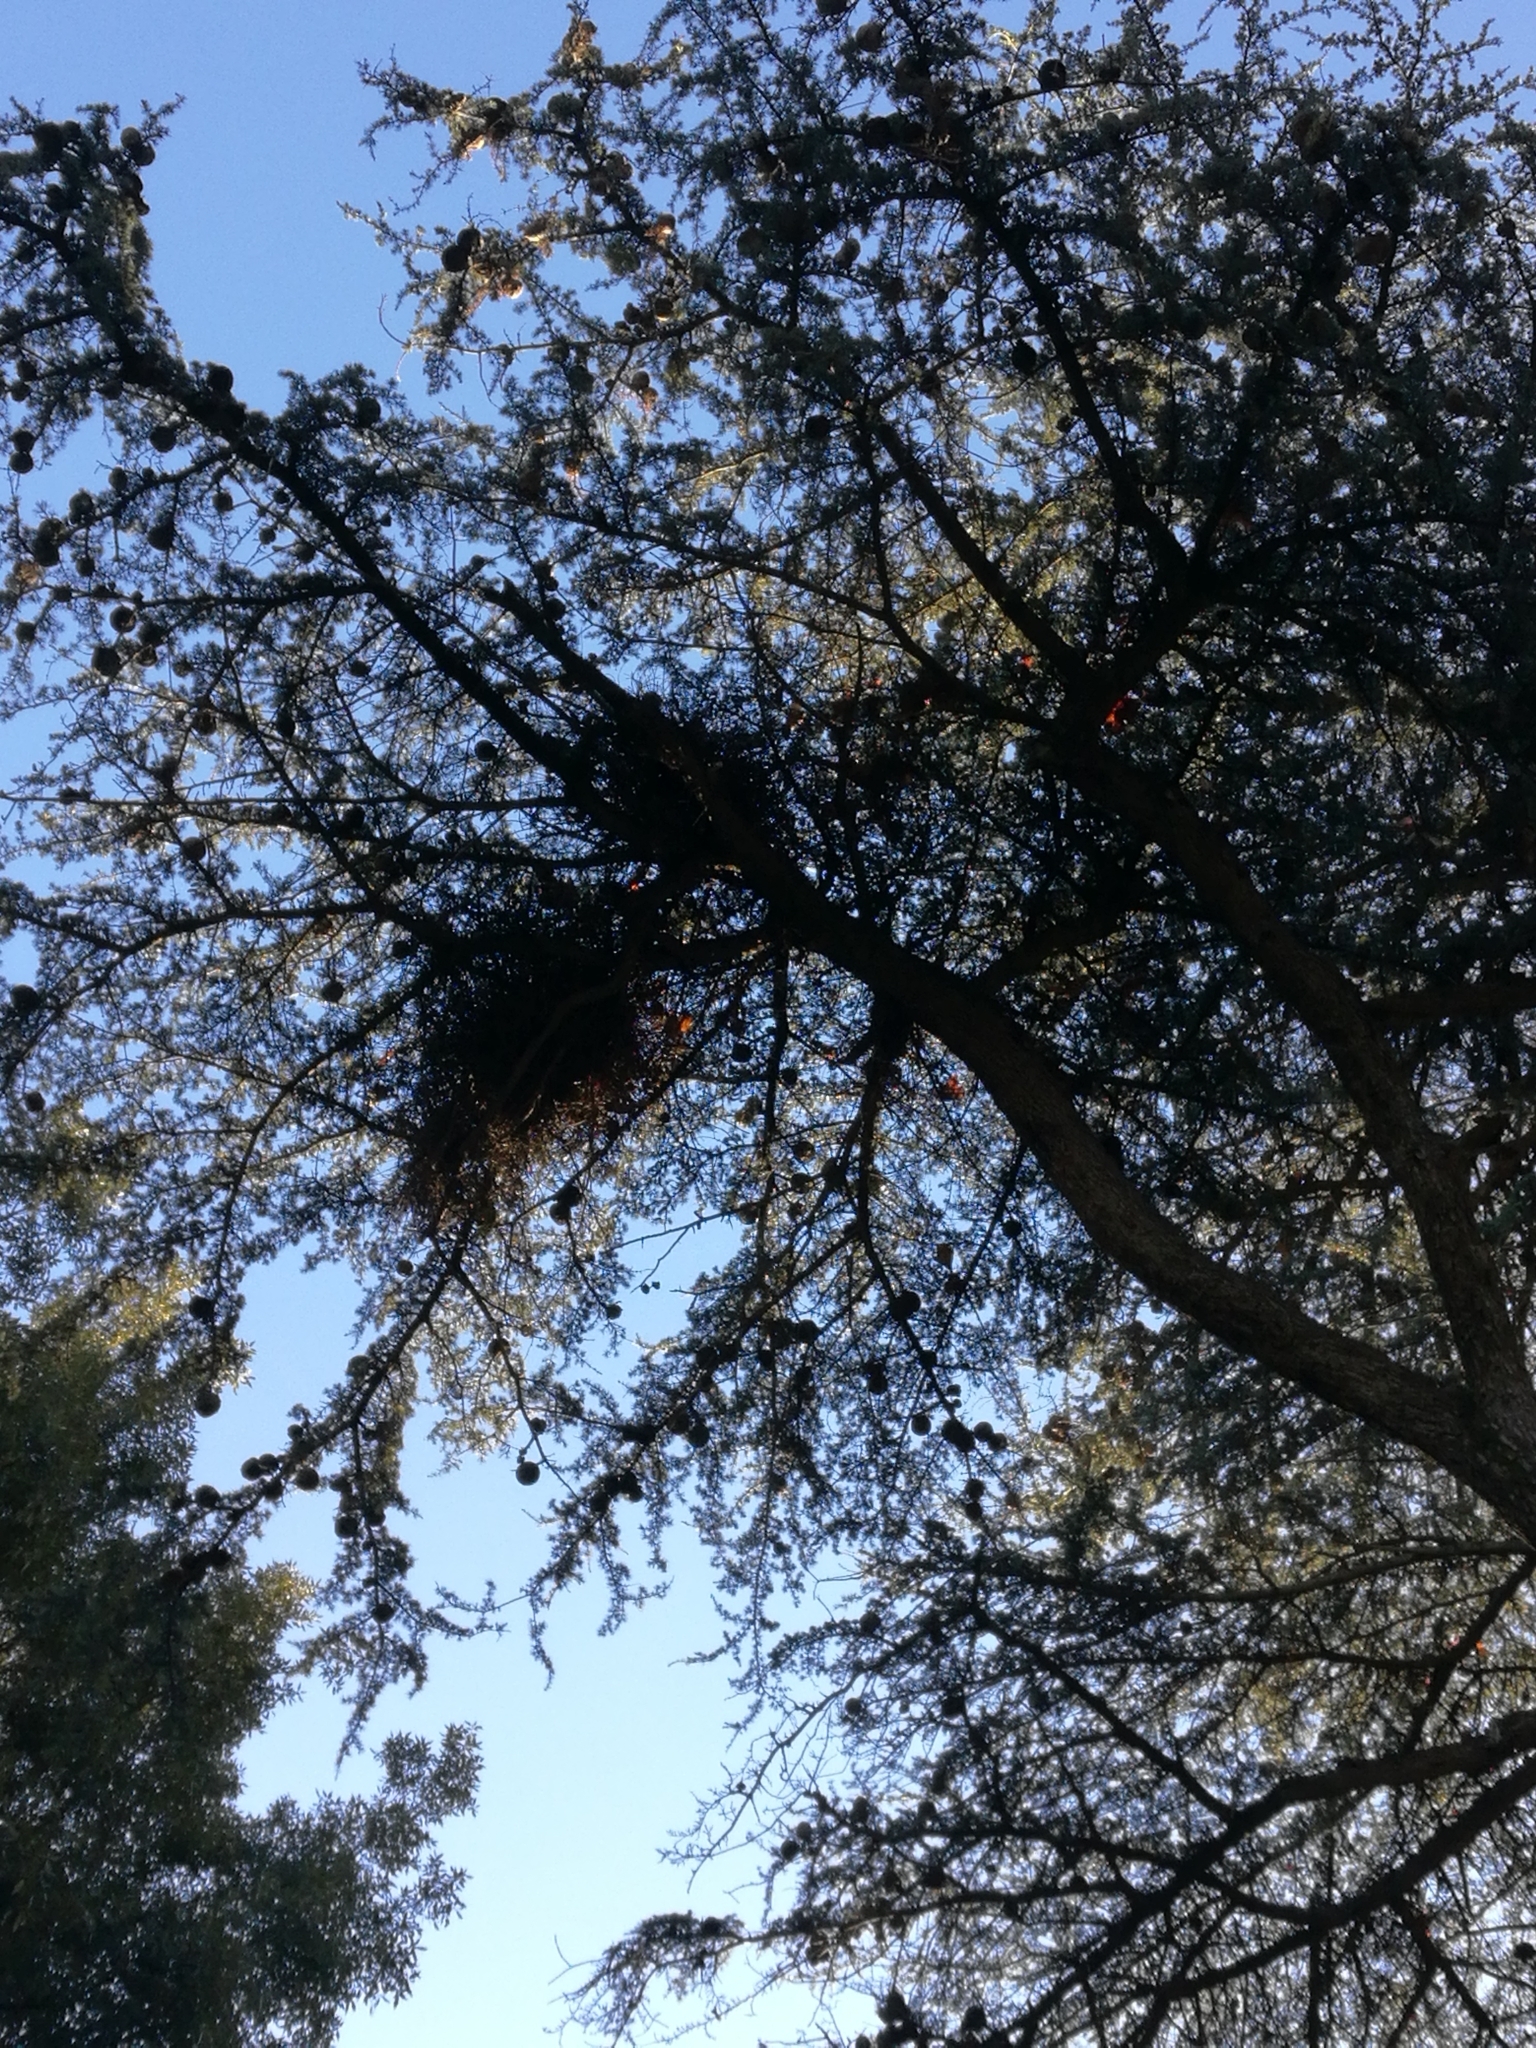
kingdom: Animalia
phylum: Chordata
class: Aves
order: Psittaciformes
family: Psittacidae
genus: Myiopsitta
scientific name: Myiopsitta monachus
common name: Monk parakeet
